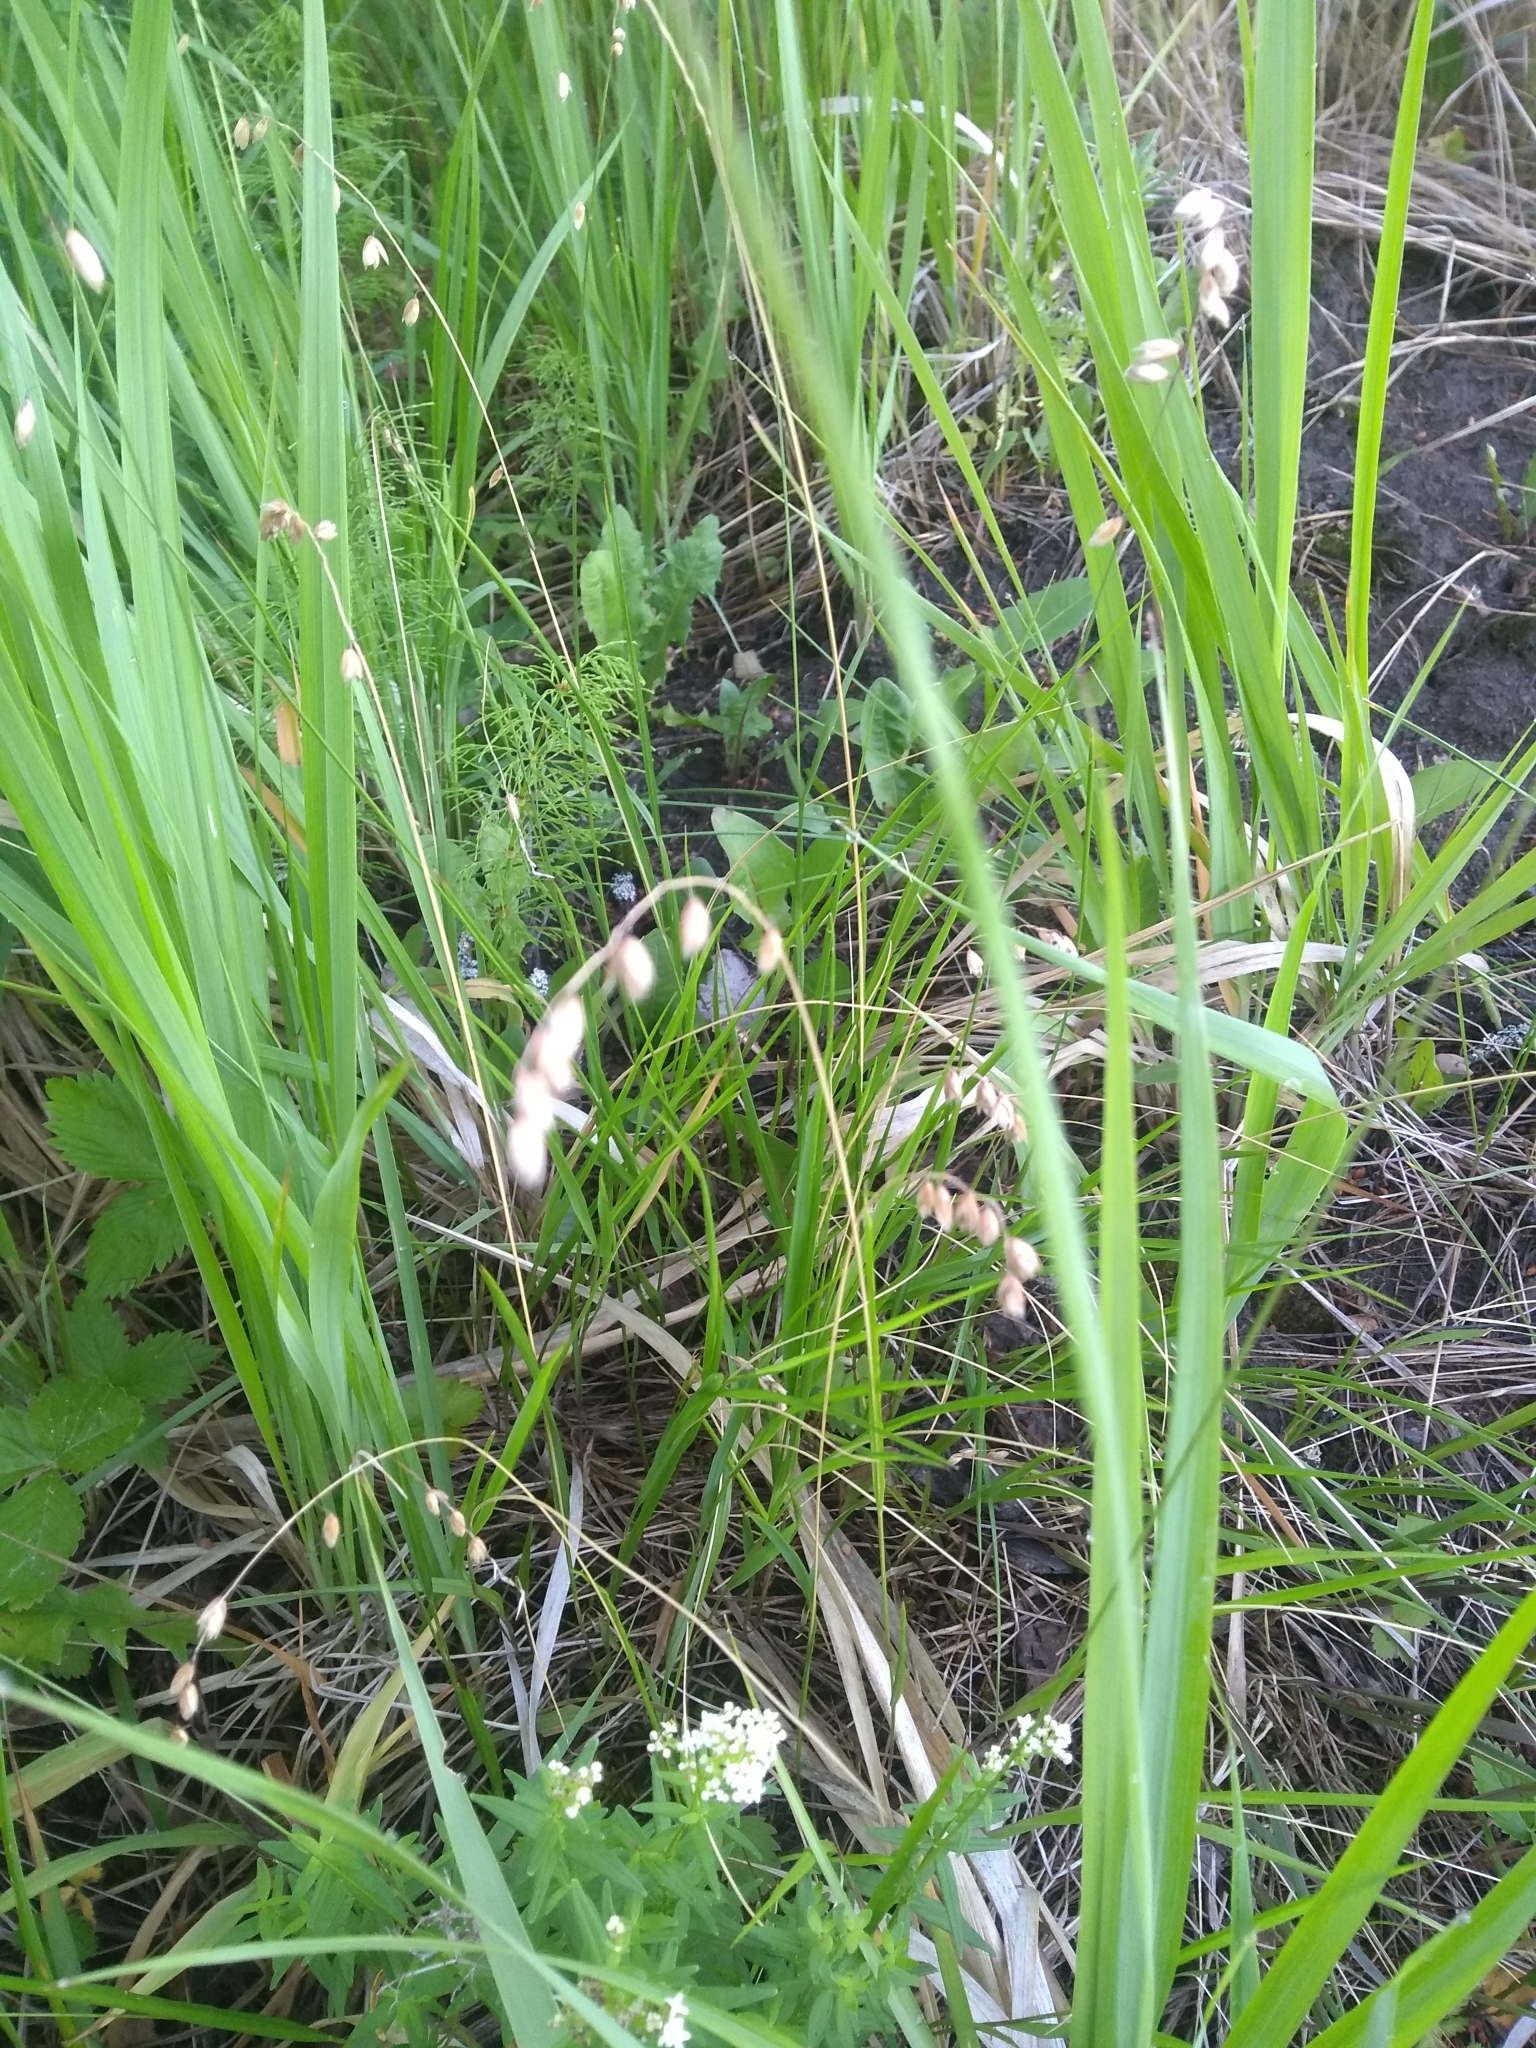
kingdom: Plantae
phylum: Tracheophyta
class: Liliopsida
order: Poales
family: Poaceae
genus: Melica
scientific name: Melica nutans
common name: Mountain melick
